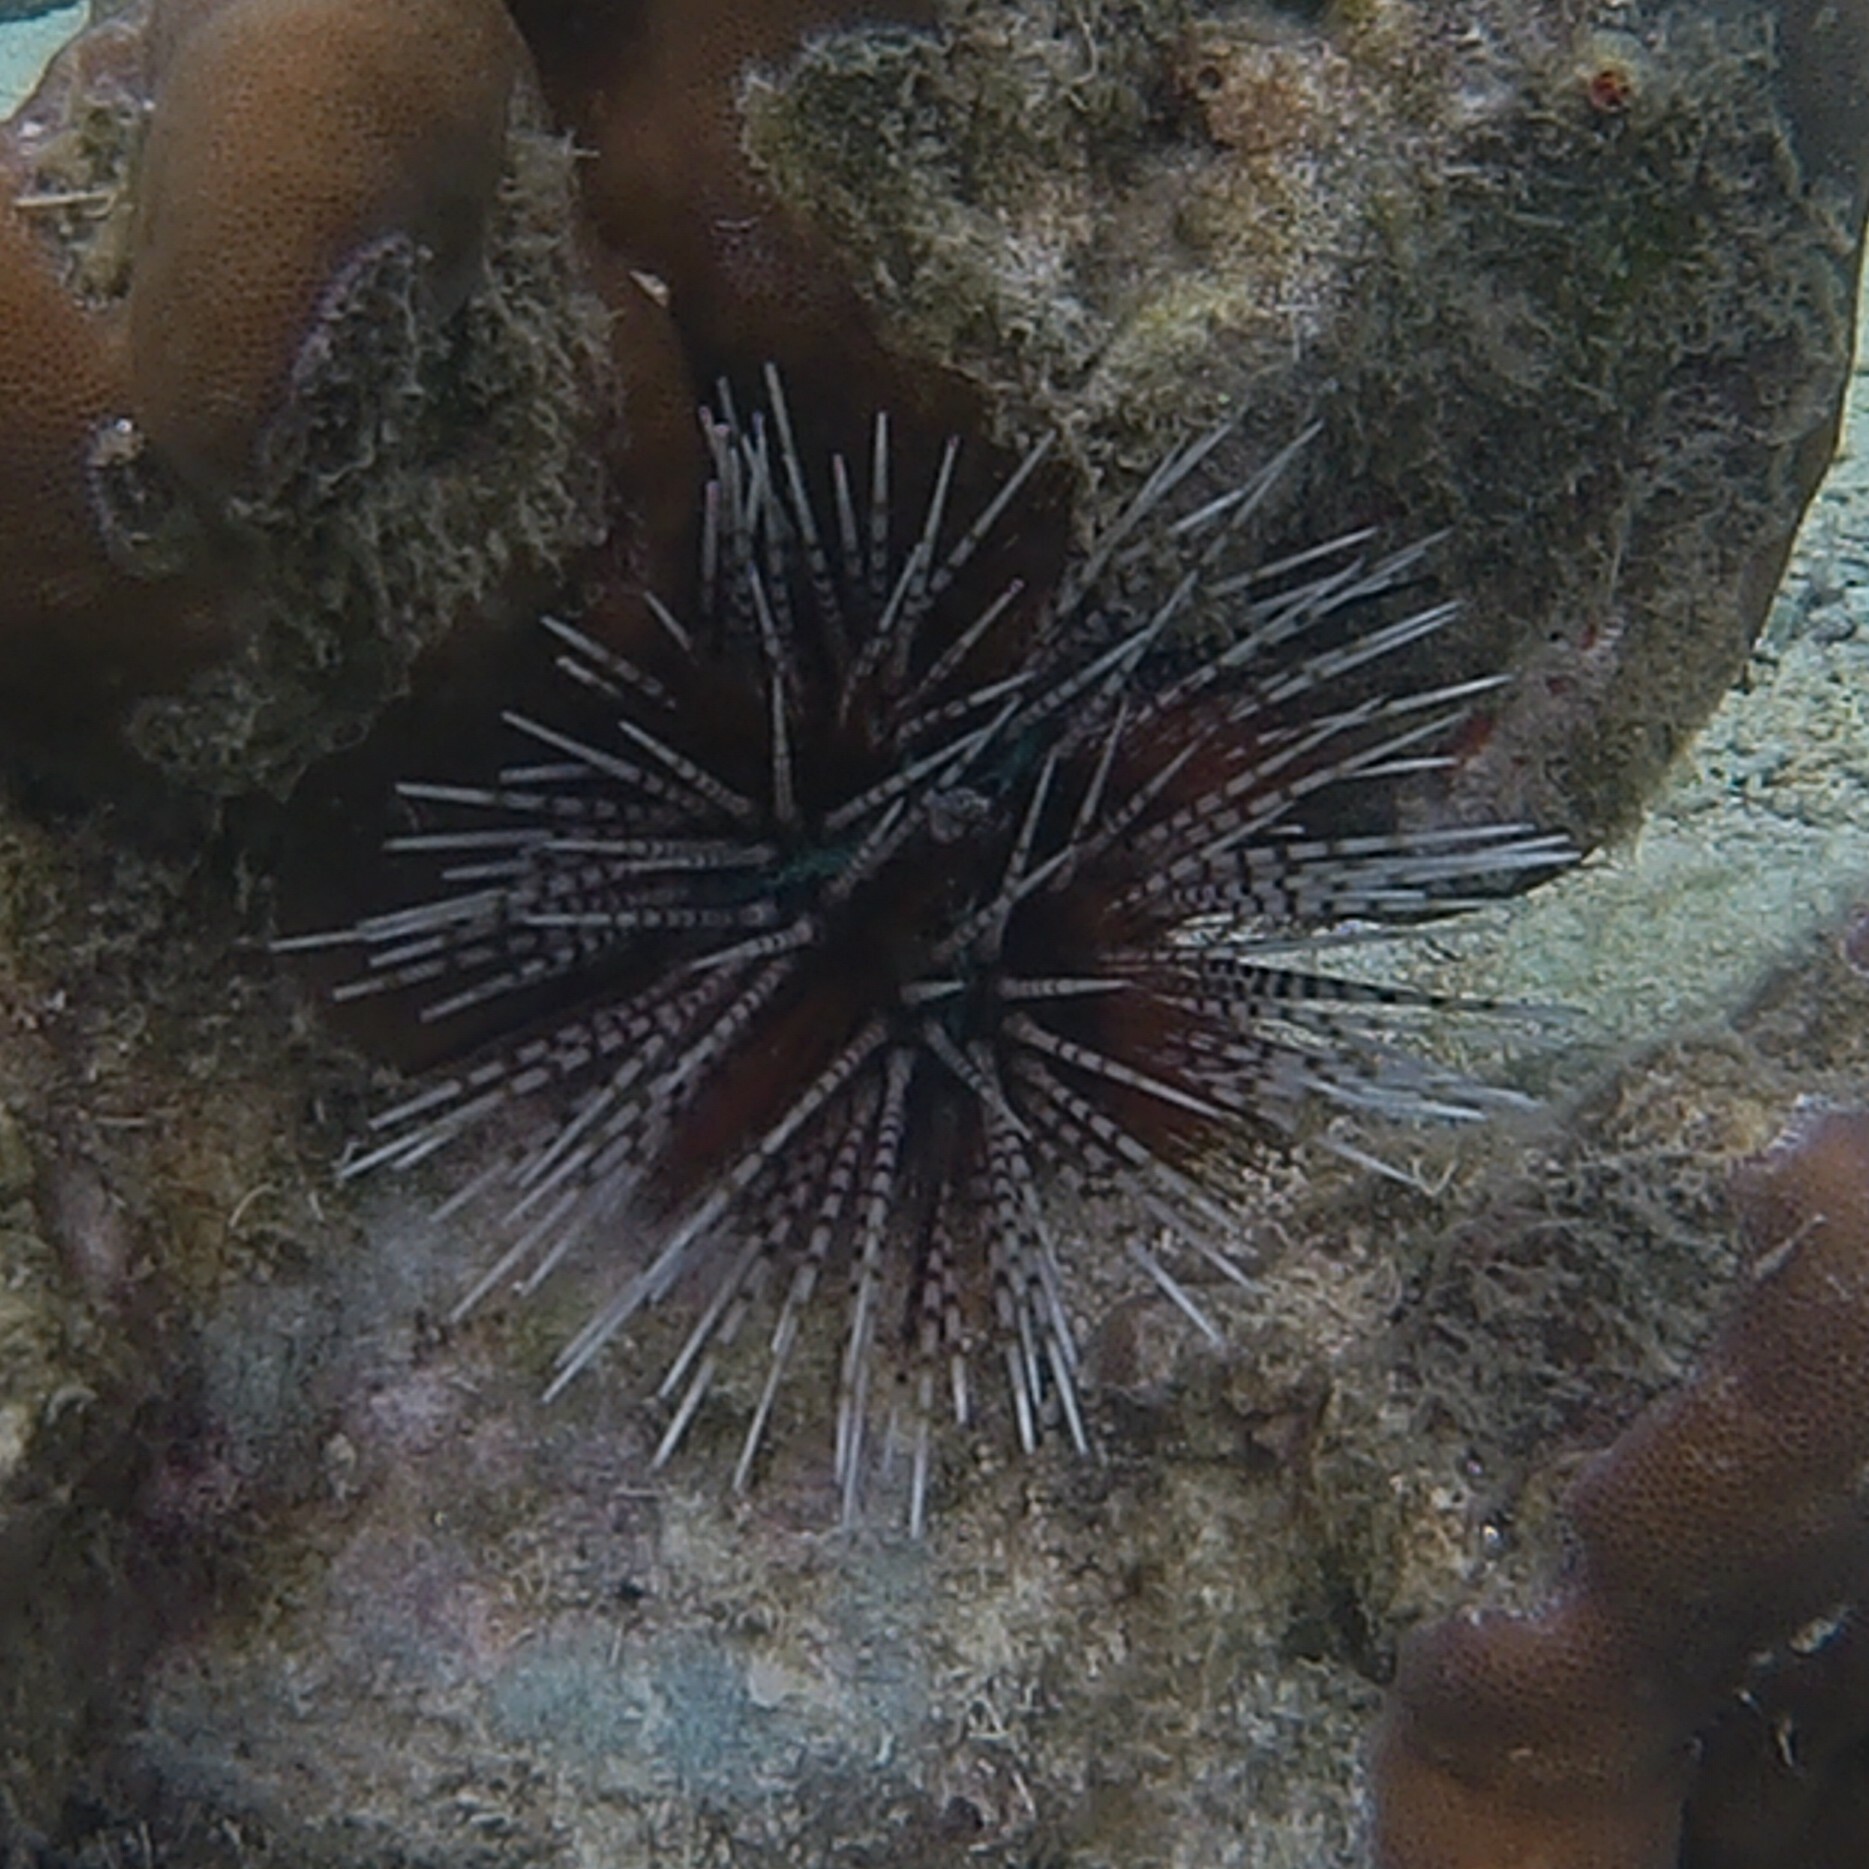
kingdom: Animalia
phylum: Echinodermata
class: Echinoidea
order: Diadematoida
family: Diadematidae
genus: Echinothrix
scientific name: Echinothrix calamaris
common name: Banded sea urchin
